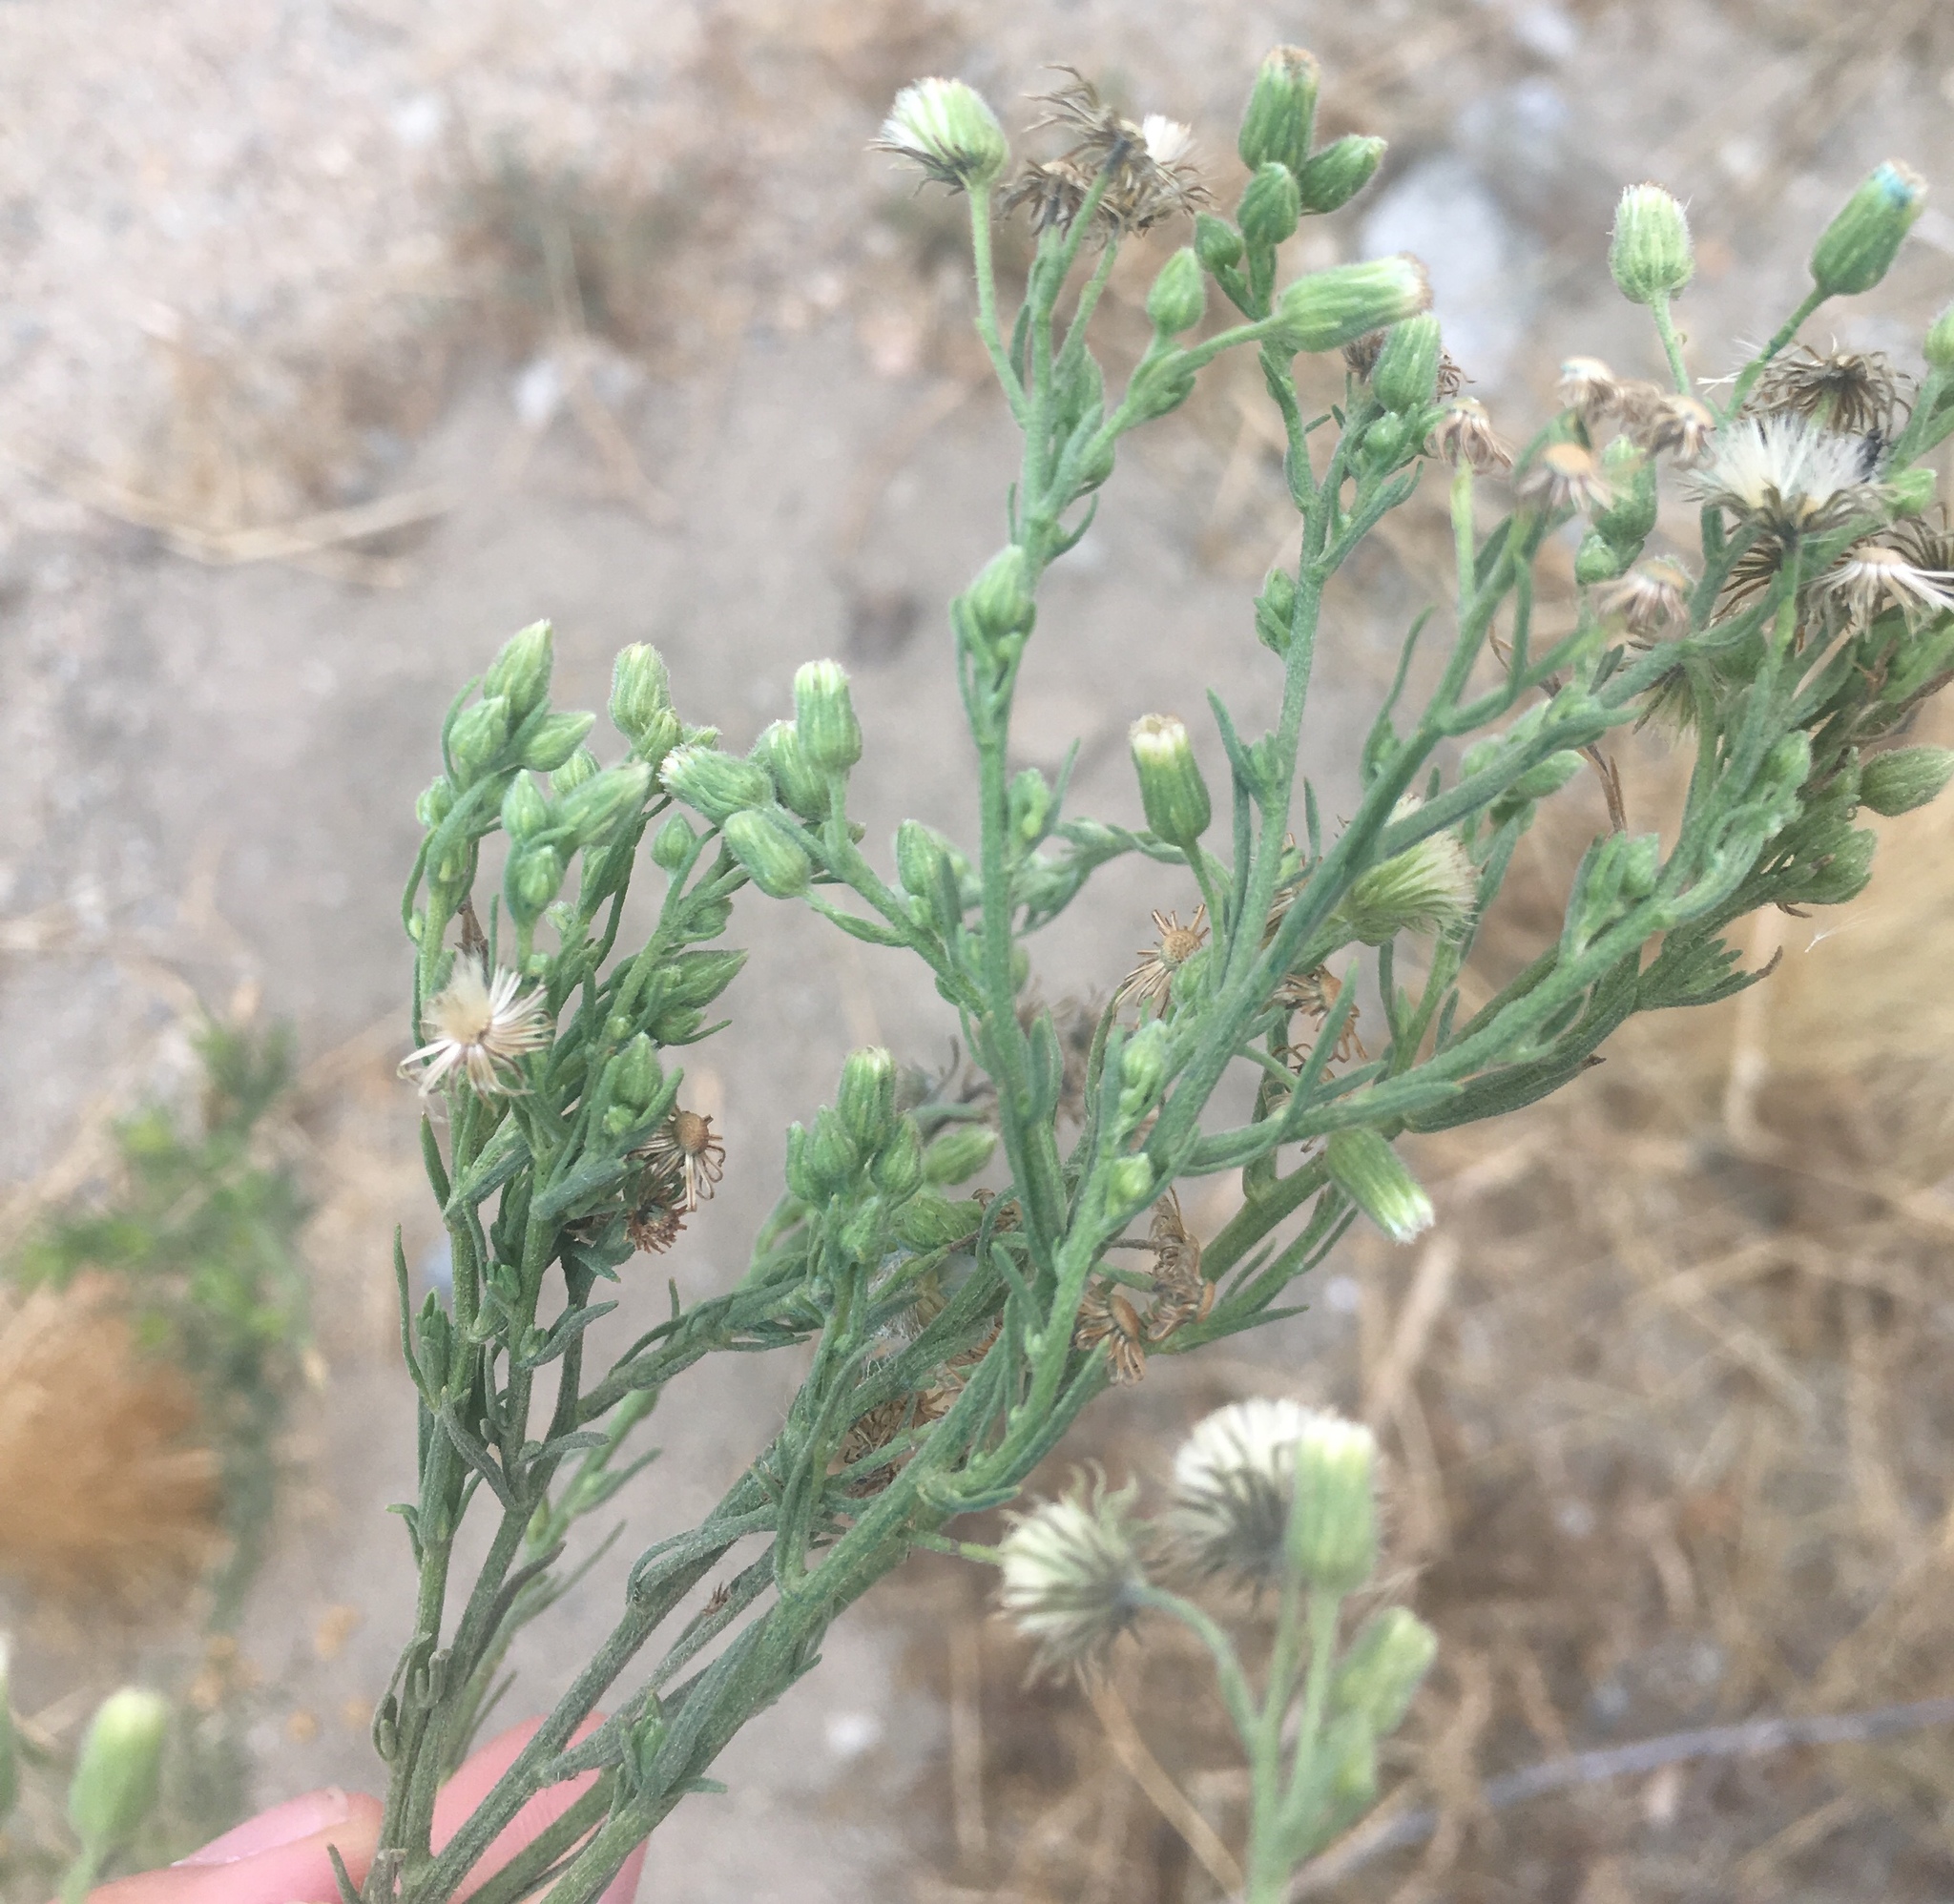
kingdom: Plantae
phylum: Tracheophyta
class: Magnoliopsida
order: Asterales
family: Asteraceae
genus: Erigeron
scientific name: Erigeron bonariensis
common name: Argentine fleabane
